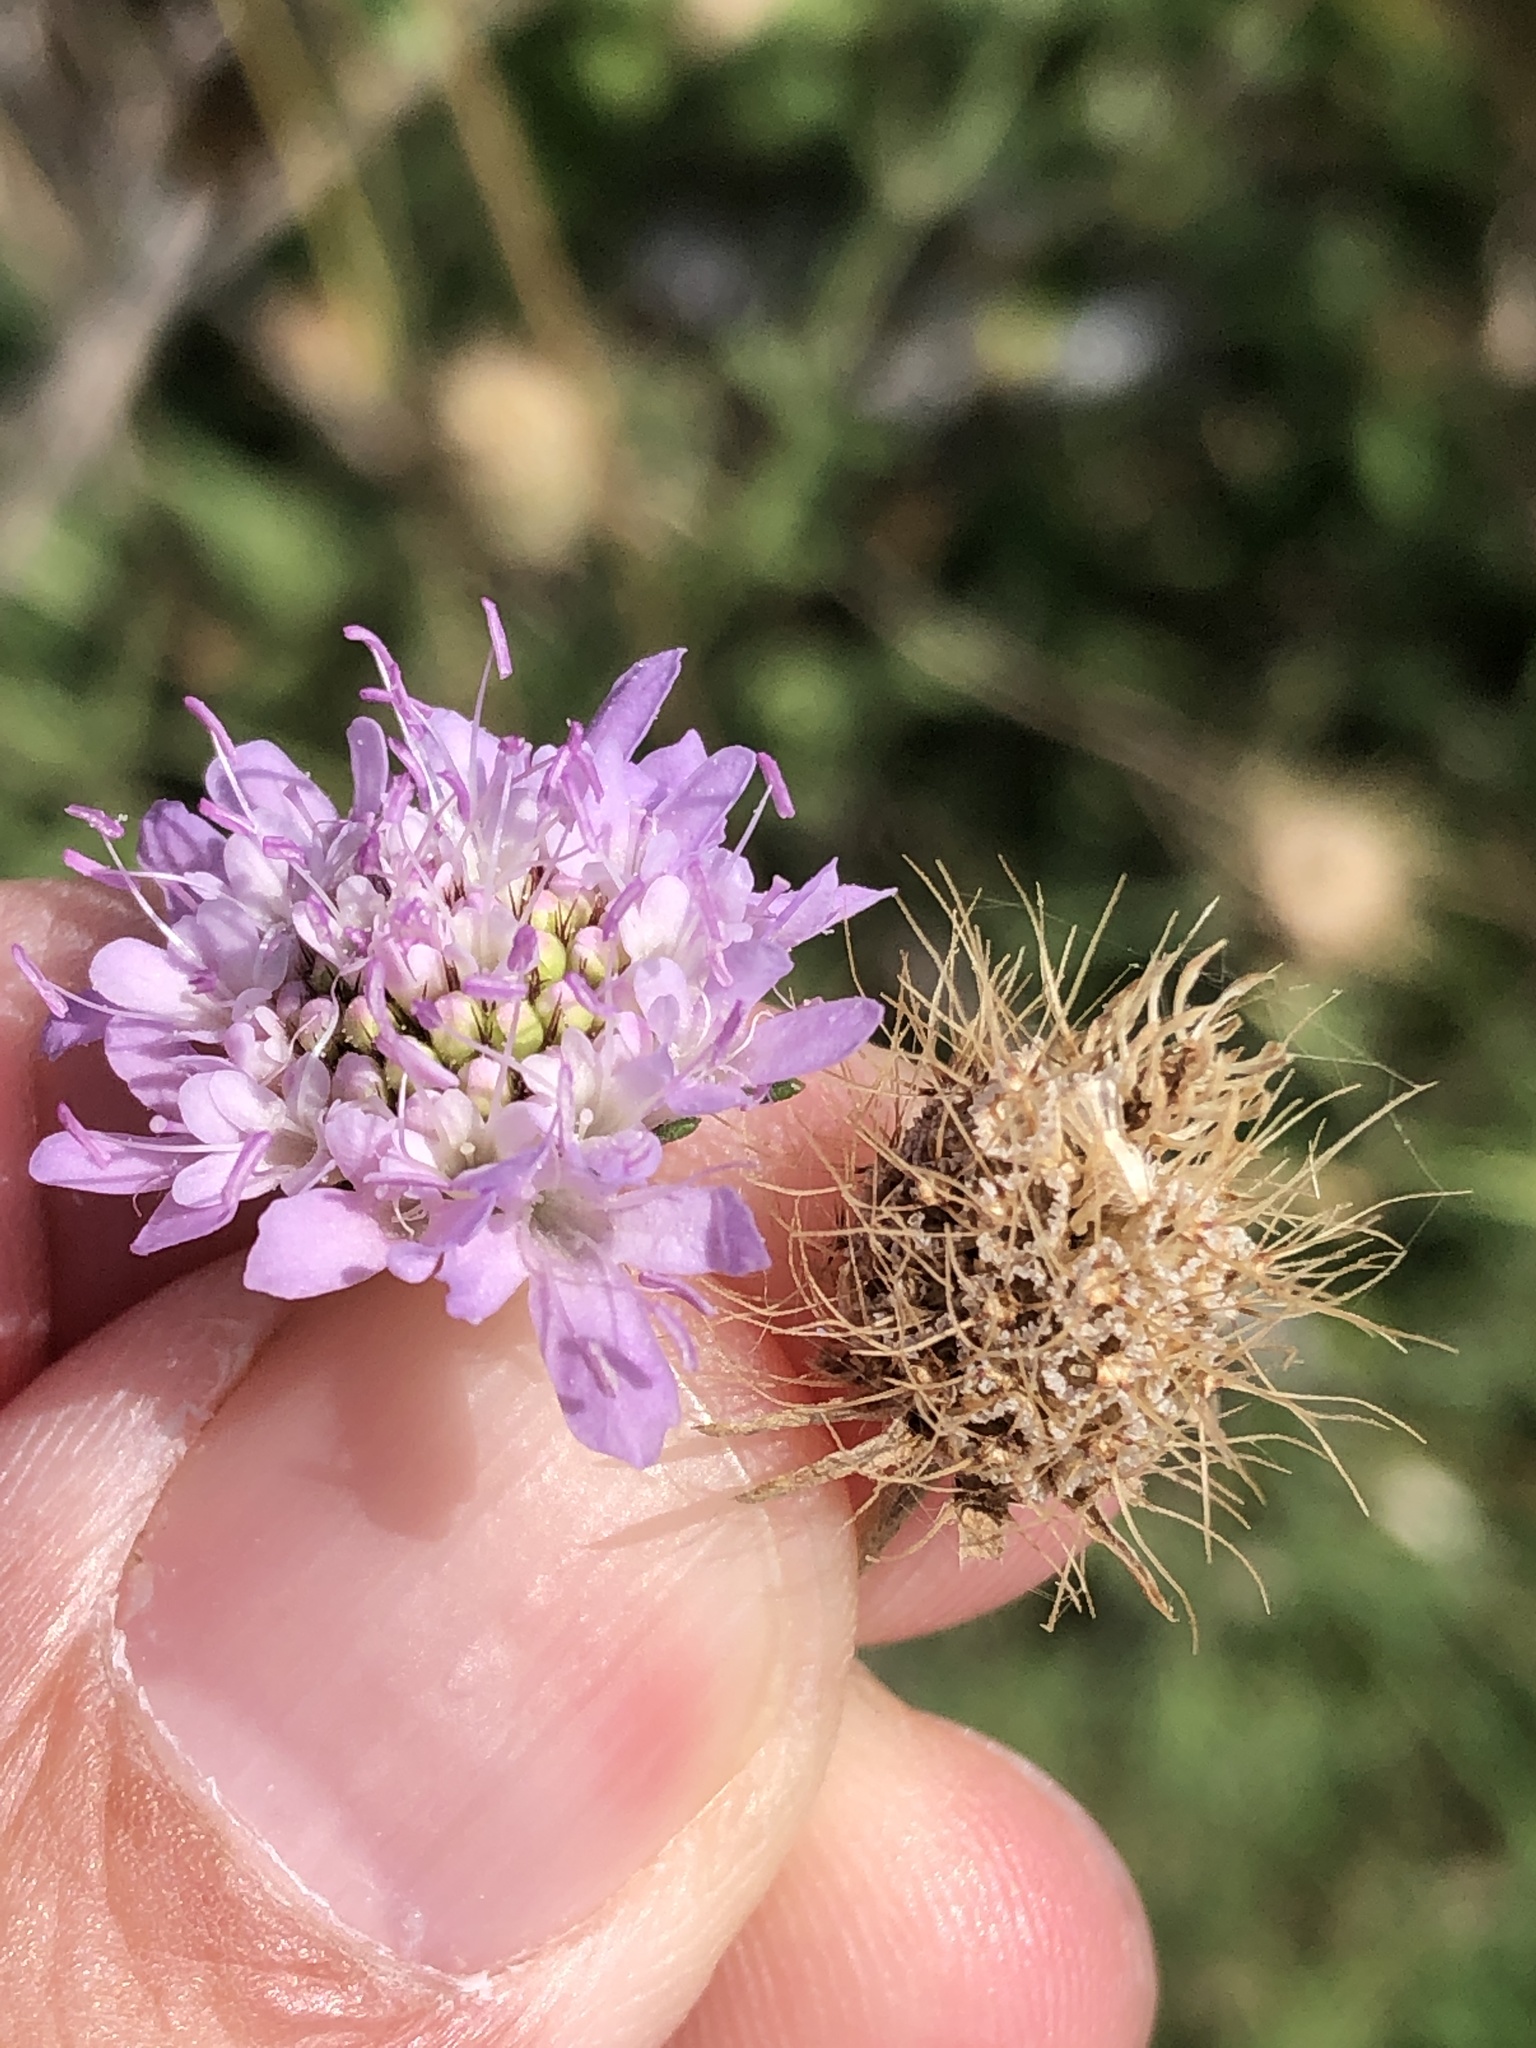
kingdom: Plantae
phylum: Tracheophyta
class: Magnoliopsida
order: Dipsacales
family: Caprifoliaceae
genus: Sixalix
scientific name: Sixalix atropurpurea
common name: Sweet scabious
